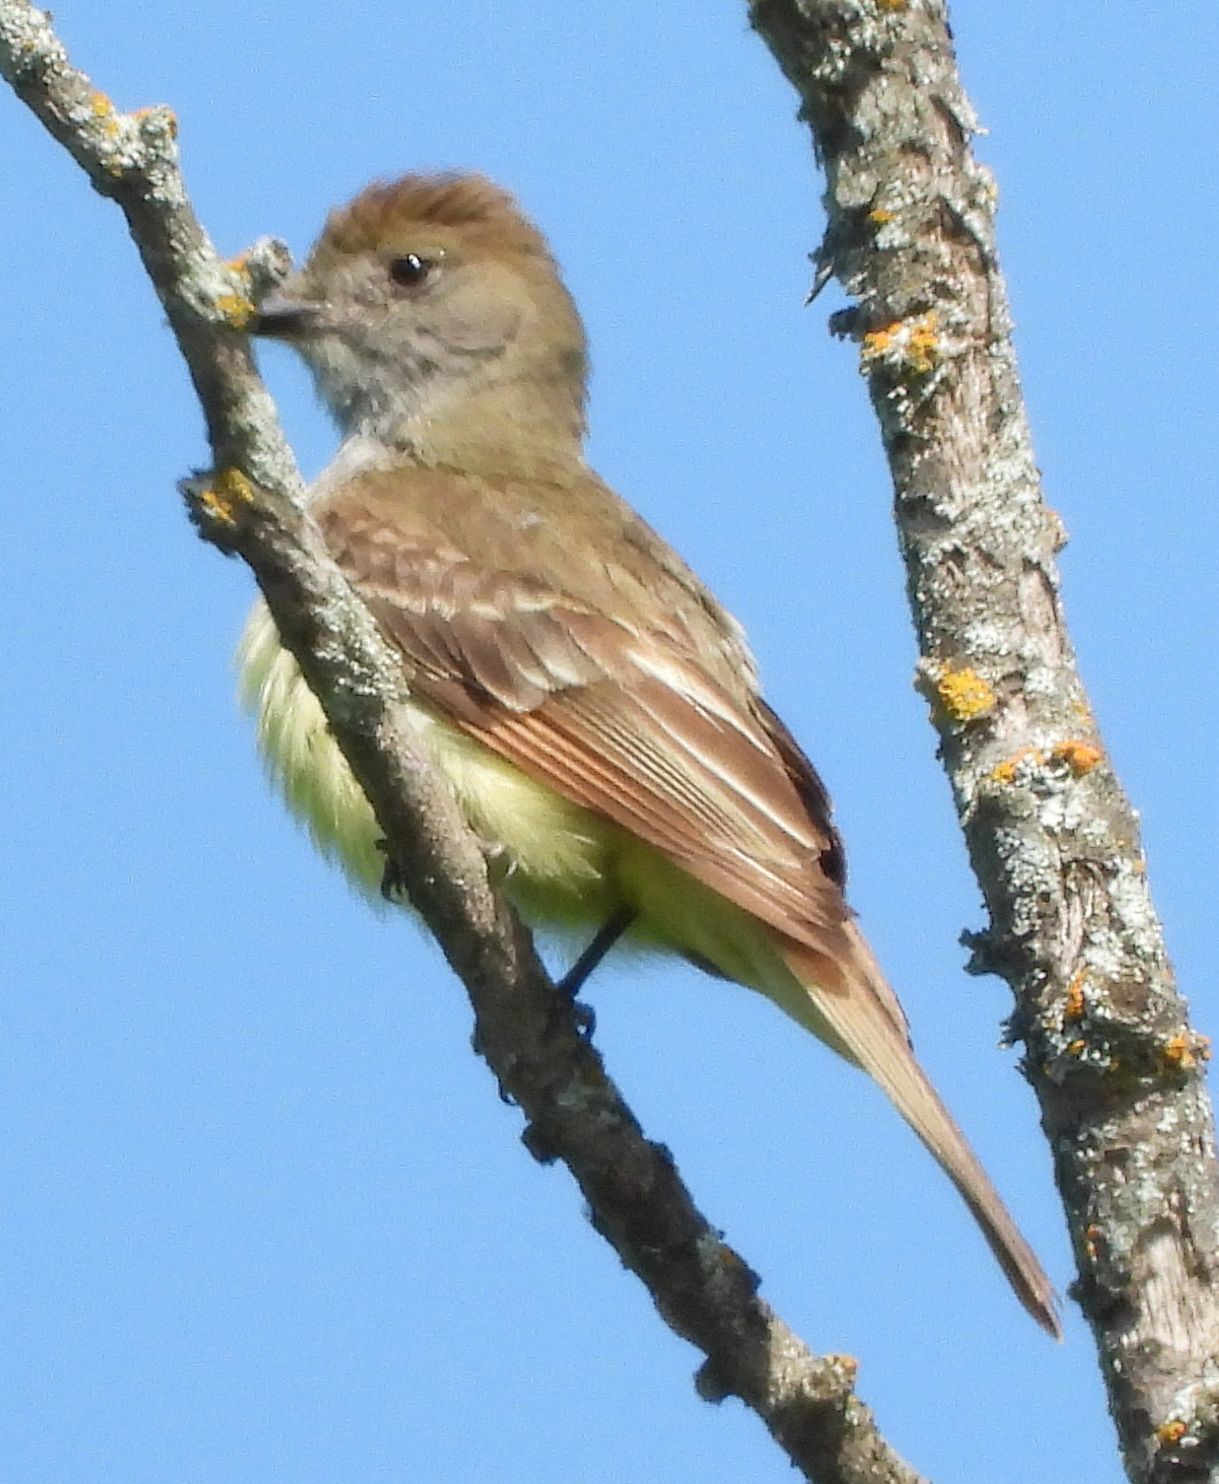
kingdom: Animalia
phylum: Chordata
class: Aves
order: Passeriformes
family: Tyrannidae
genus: Myiarchus
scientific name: Myiarchus crinitus
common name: Great crested flycatcher
